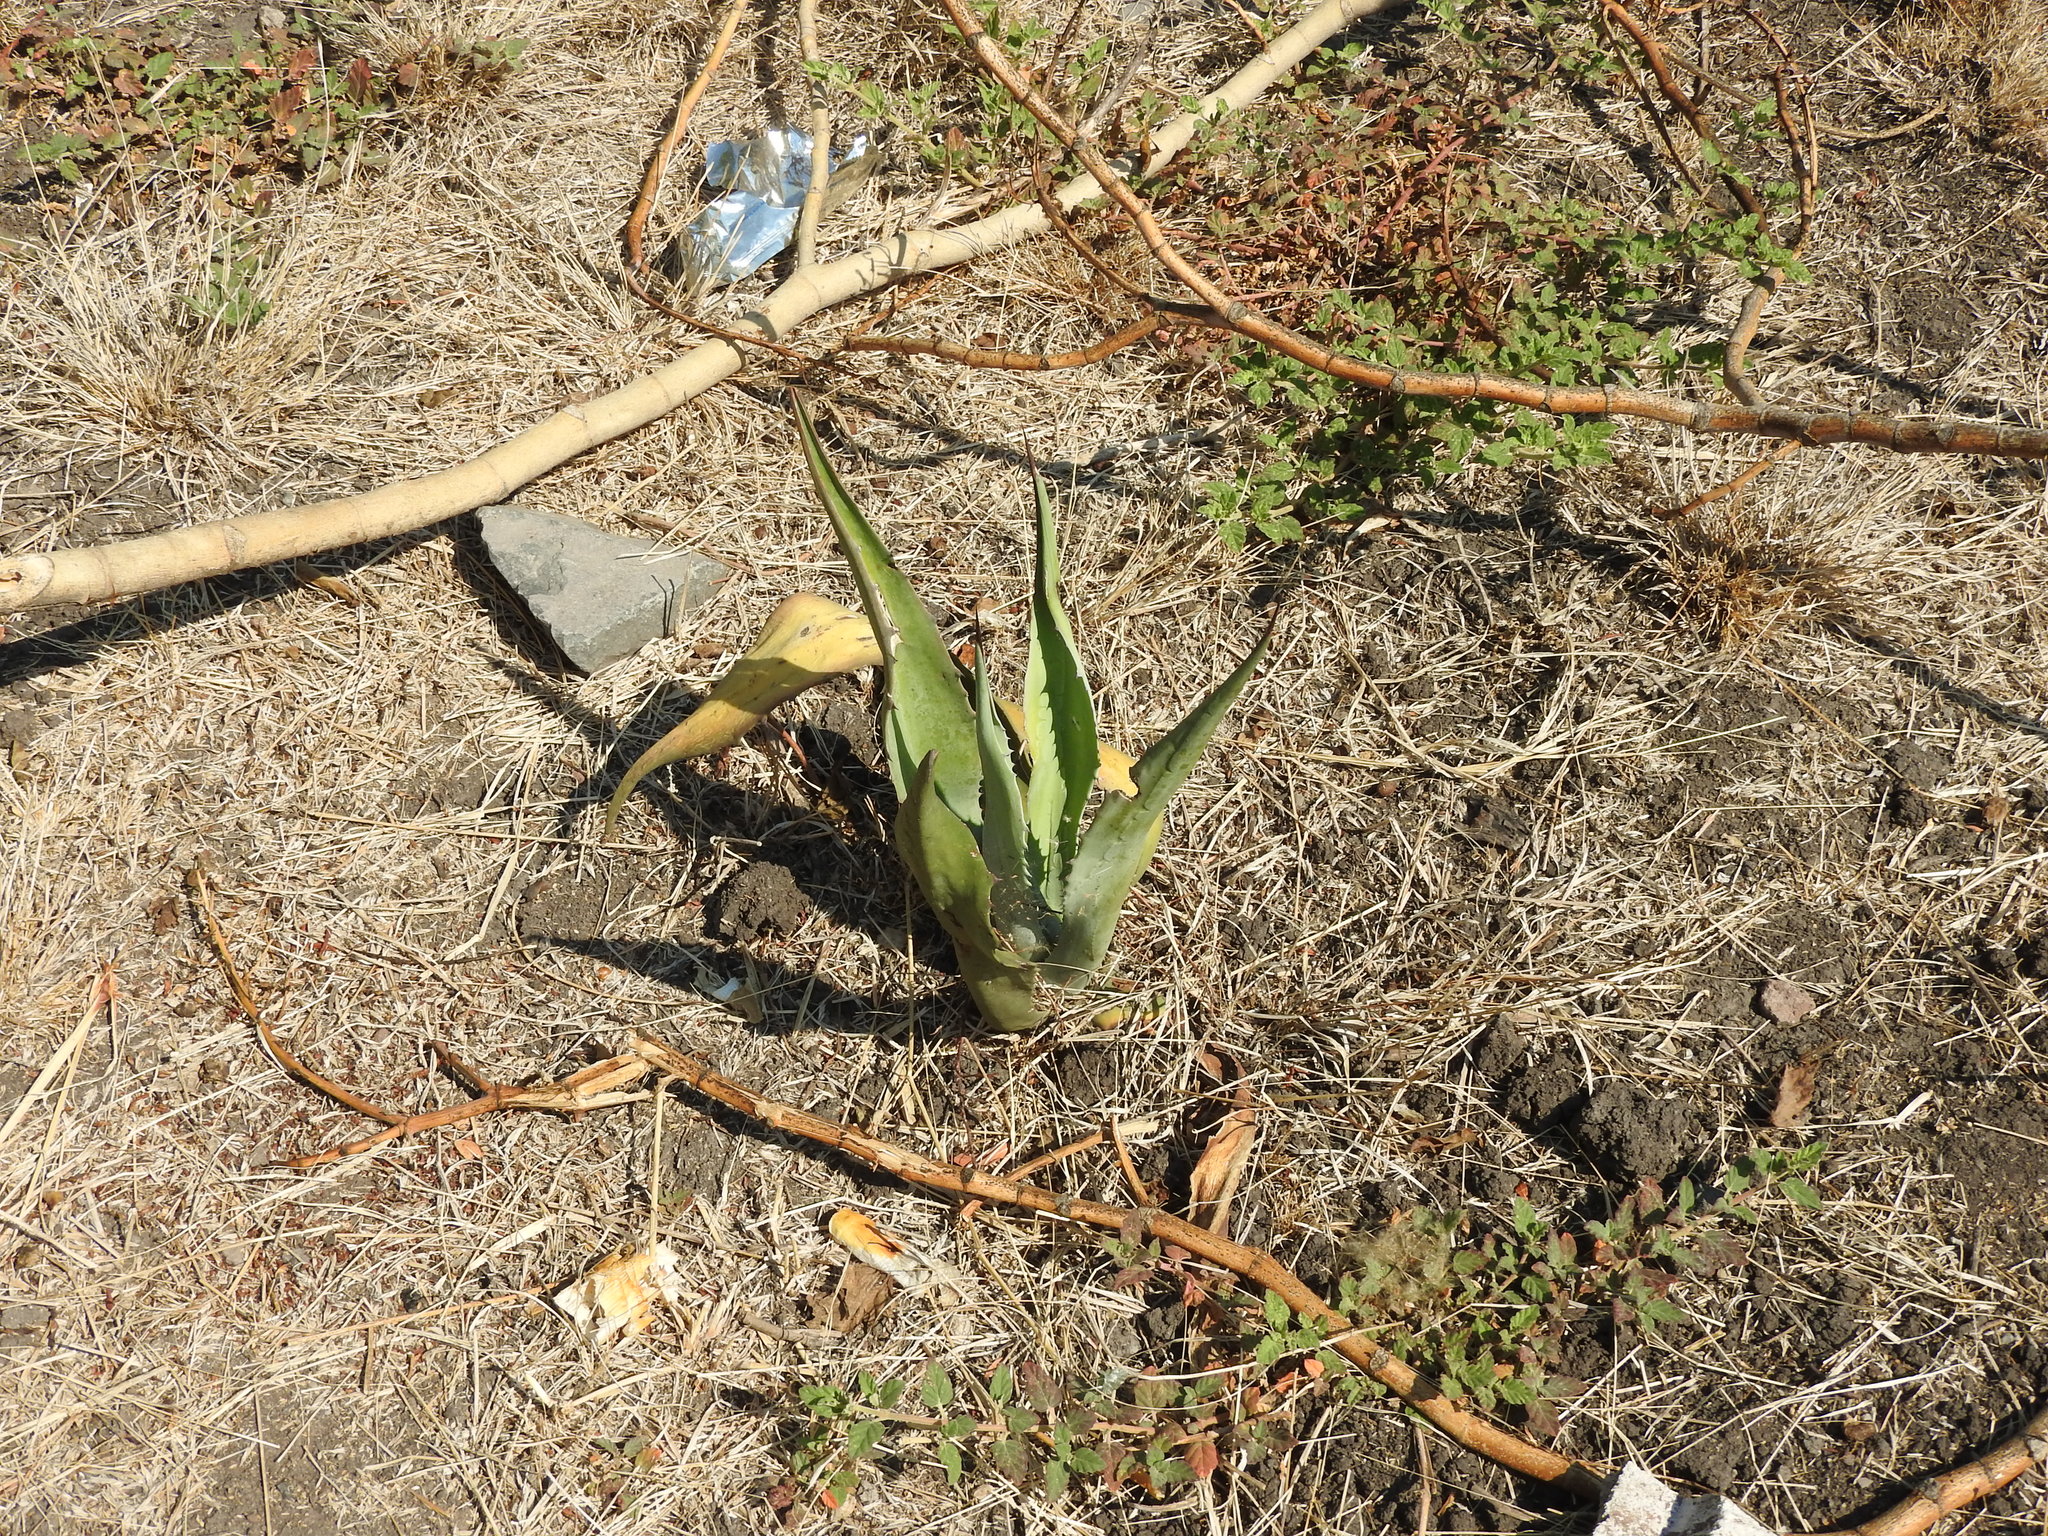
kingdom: Plantae
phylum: Tracheophyta
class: Liliopsida
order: Asparagales
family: Asparagaceae
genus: Agave
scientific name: Agave salmiana
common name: Pulque agave
